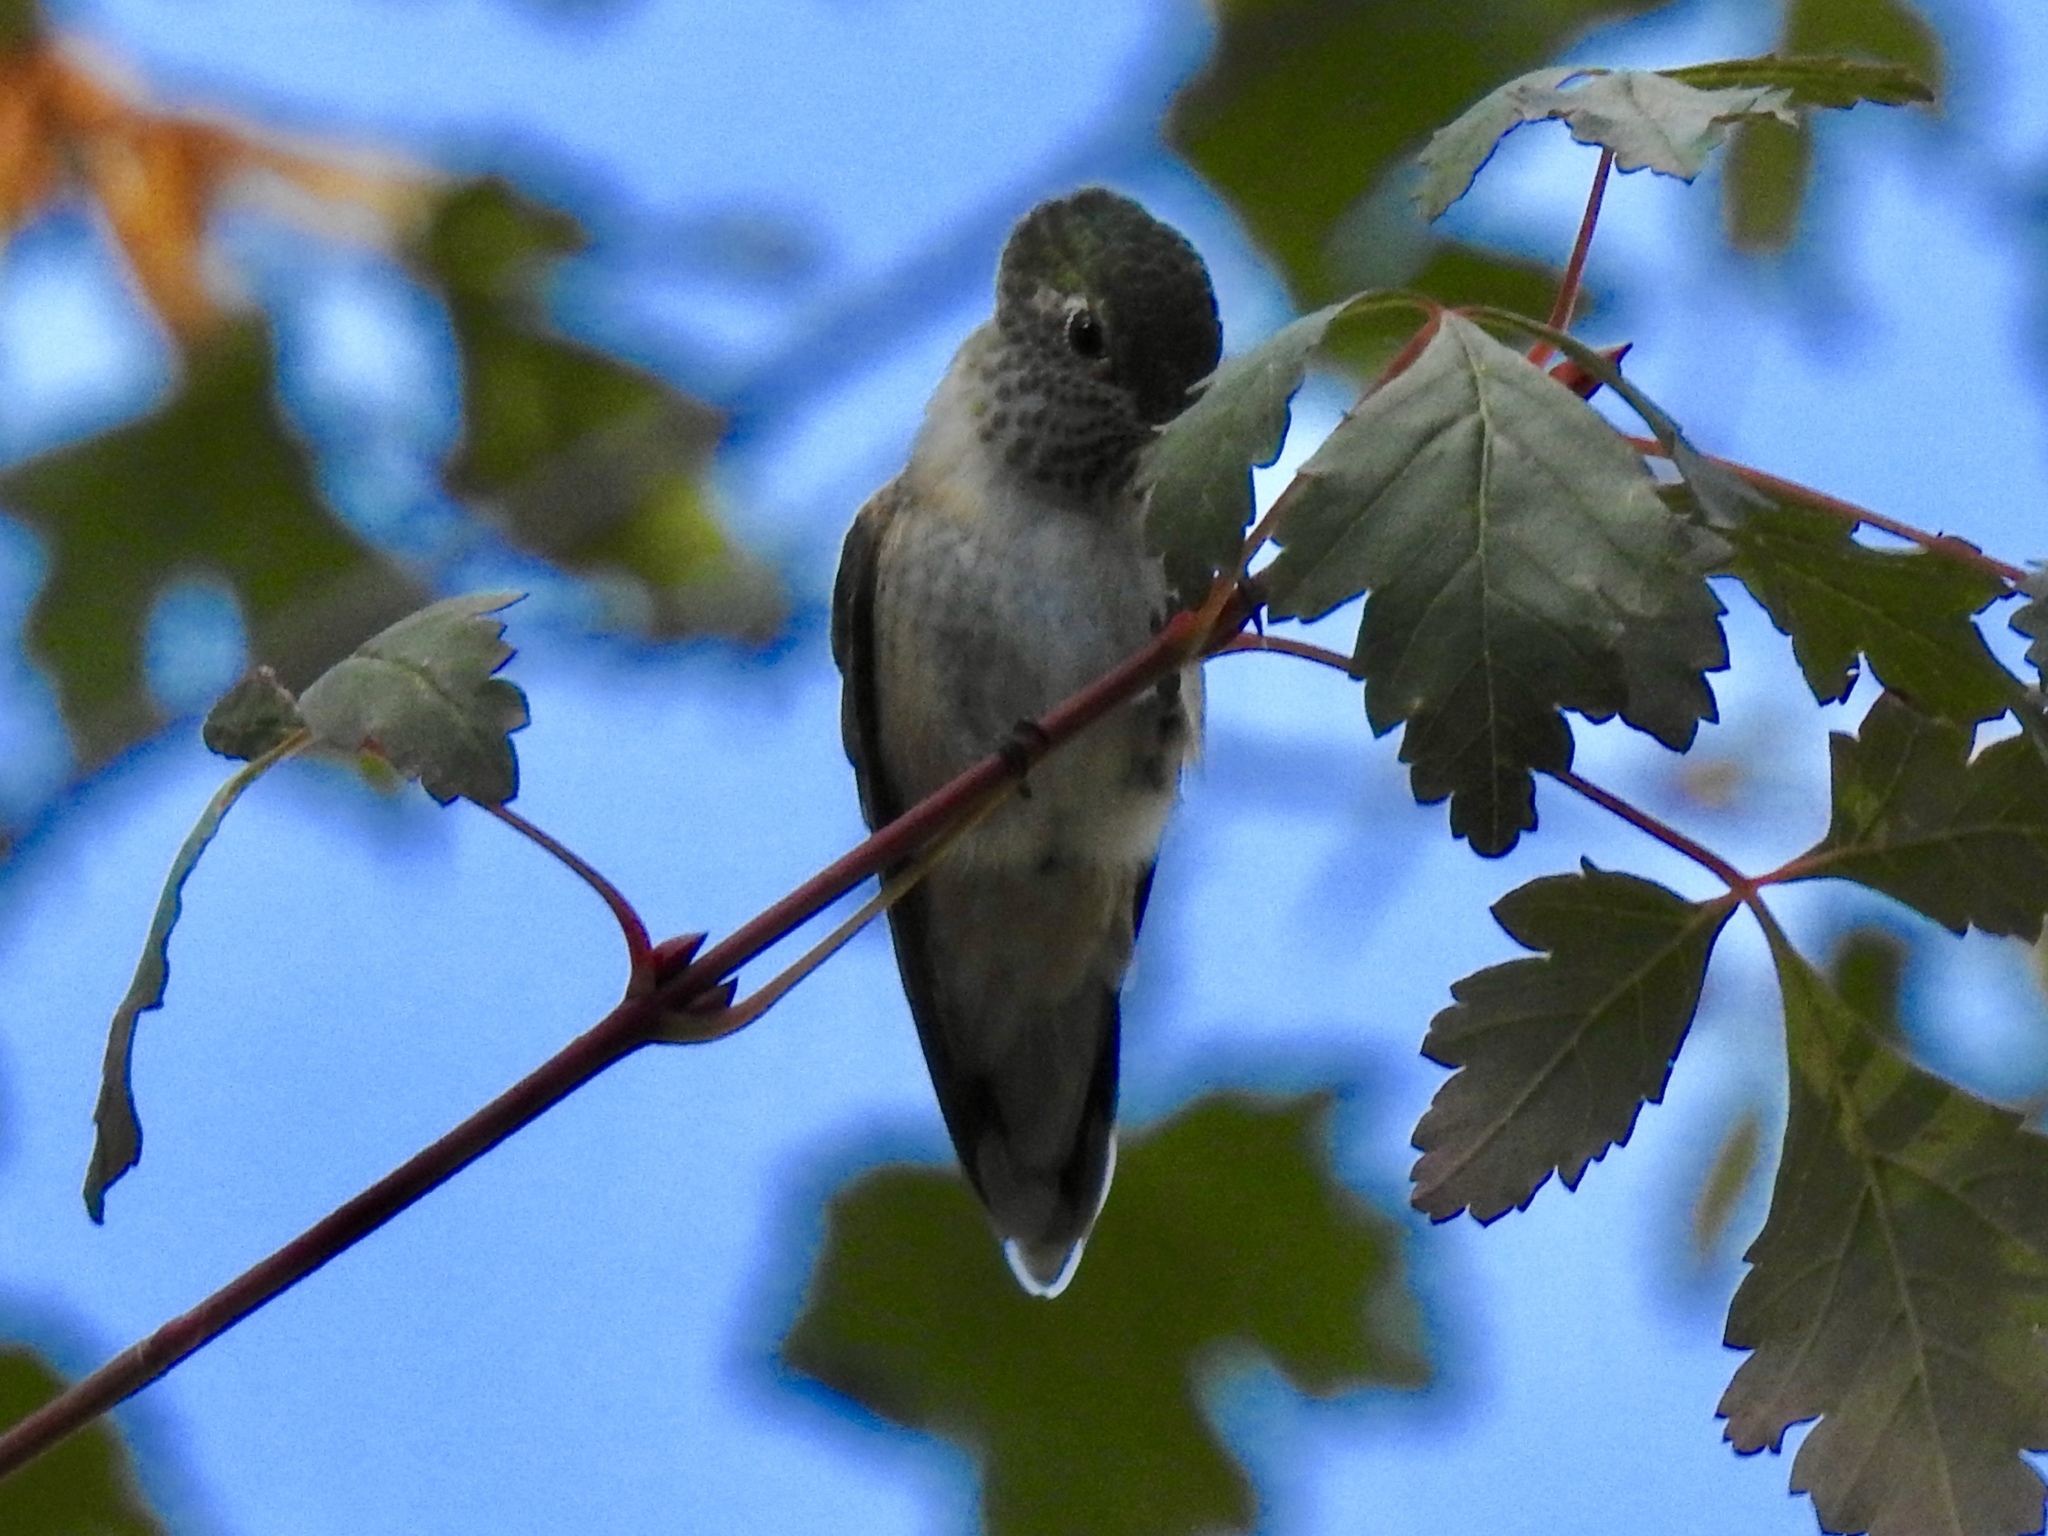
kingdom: Animalia
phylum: Chordata
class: Aves
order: Apodiformes
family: Trochilidae
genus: Selasphorus
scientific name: Selasphorus platycercus
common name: Broad-tailed hummingbird
